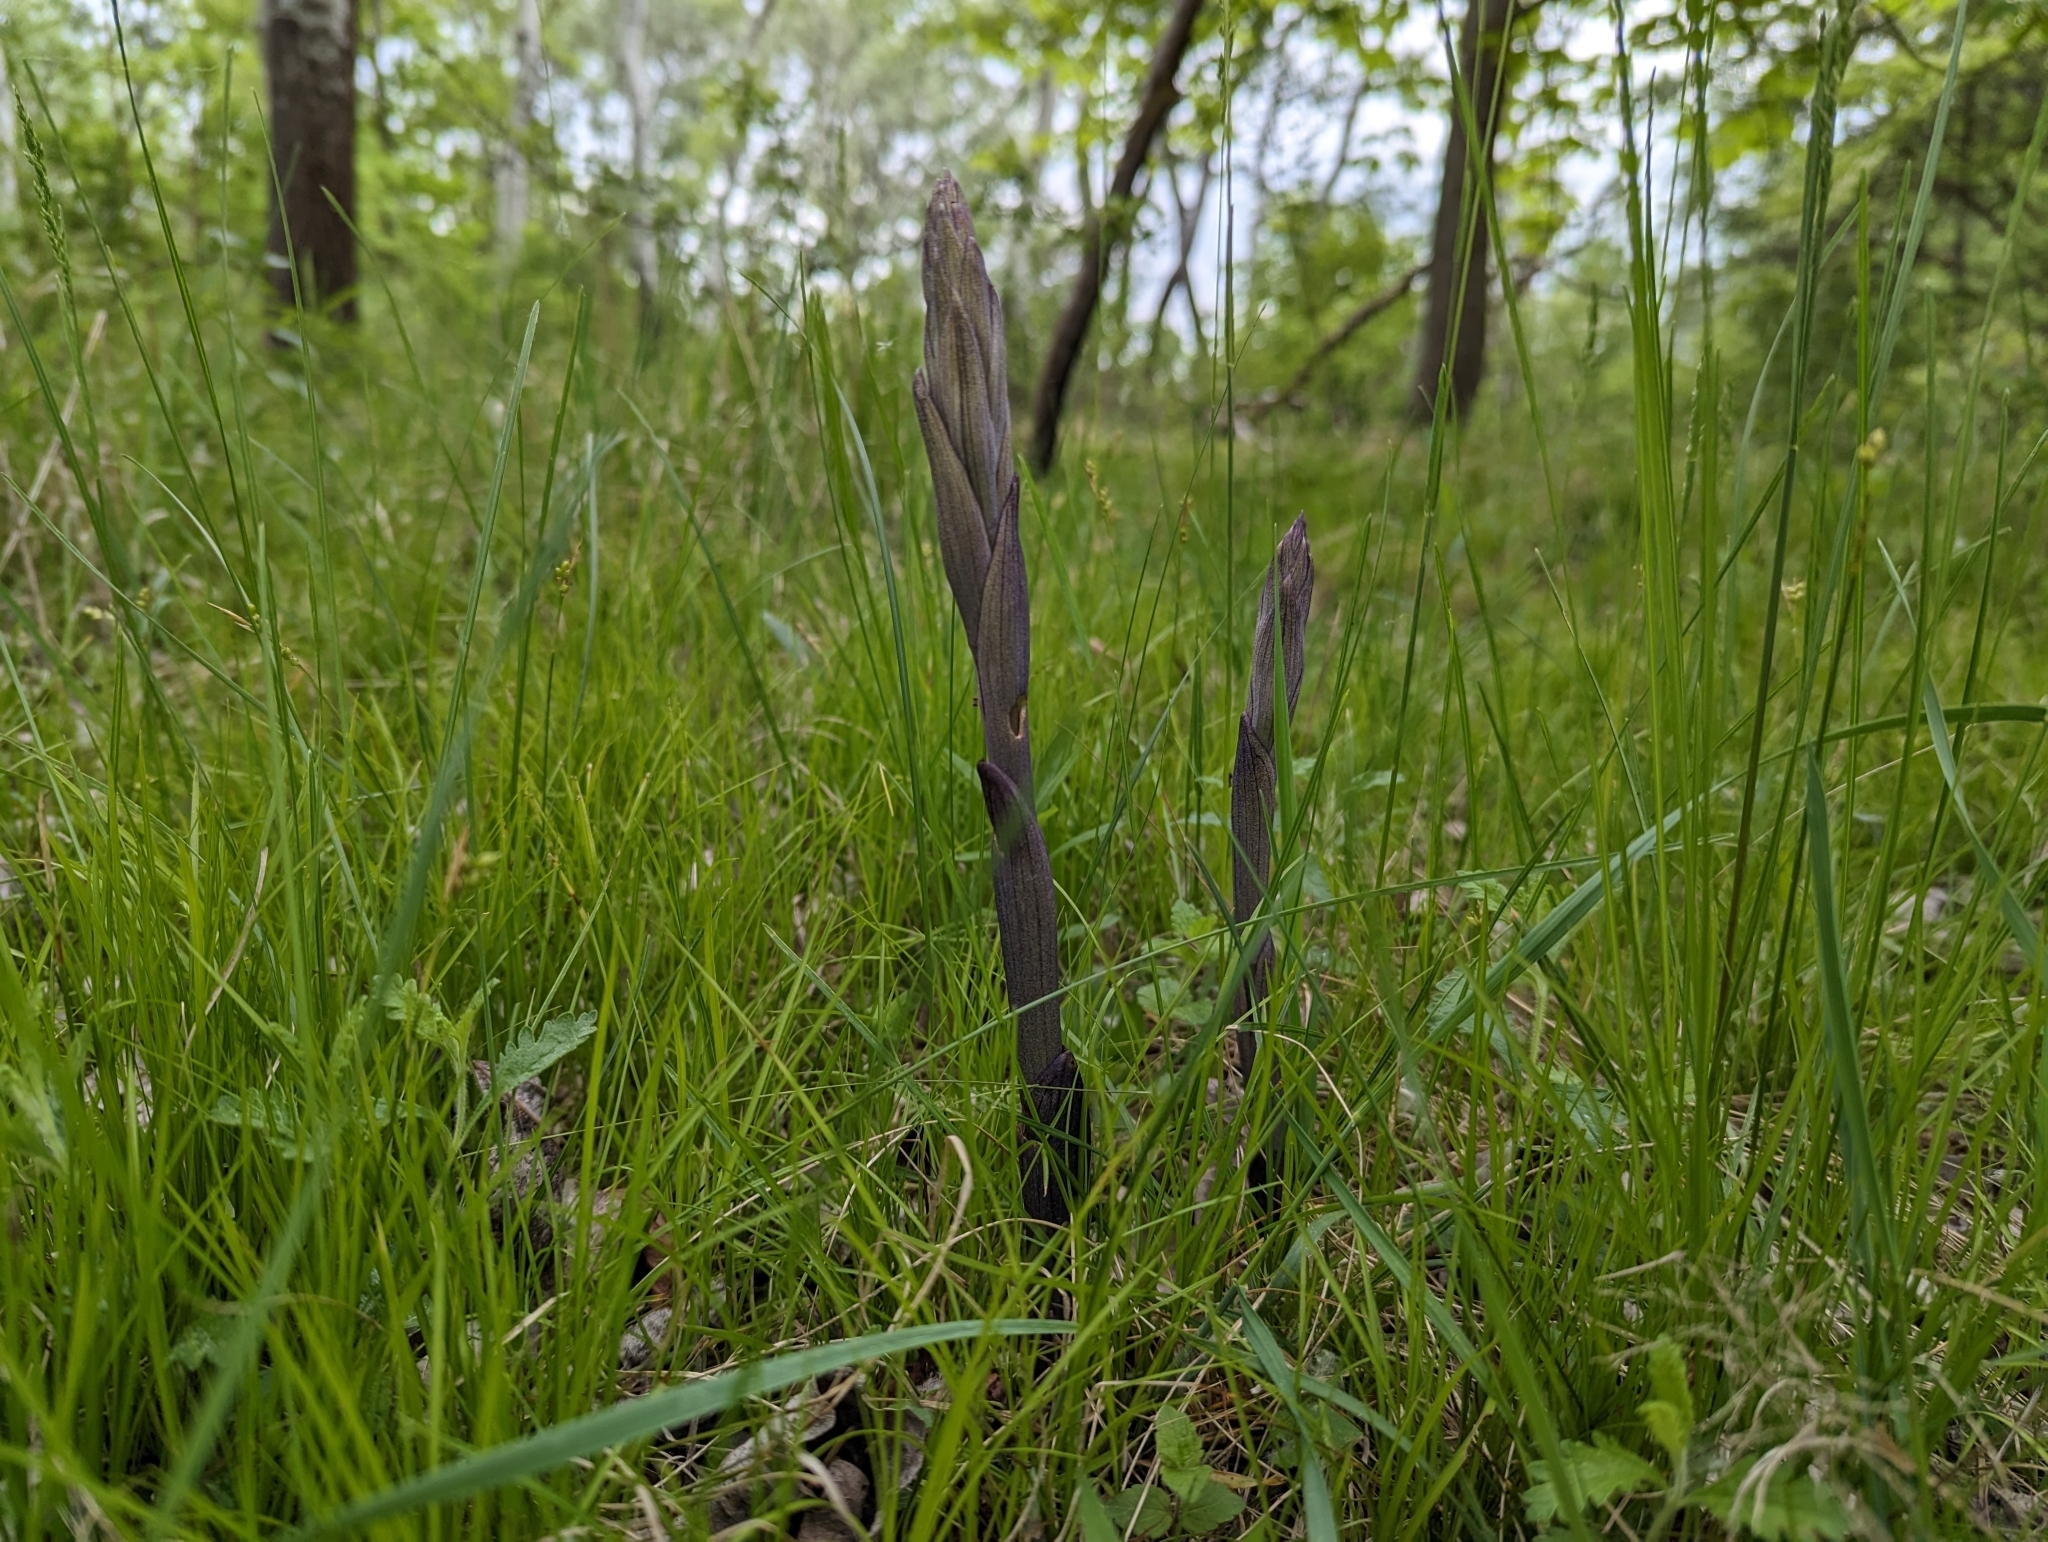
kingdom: Plantae
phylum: Tracheophyta
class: Liliopsida
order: Asparagales
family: Orchidaceae
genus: Limodorum
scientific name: Limodorum abortivum
